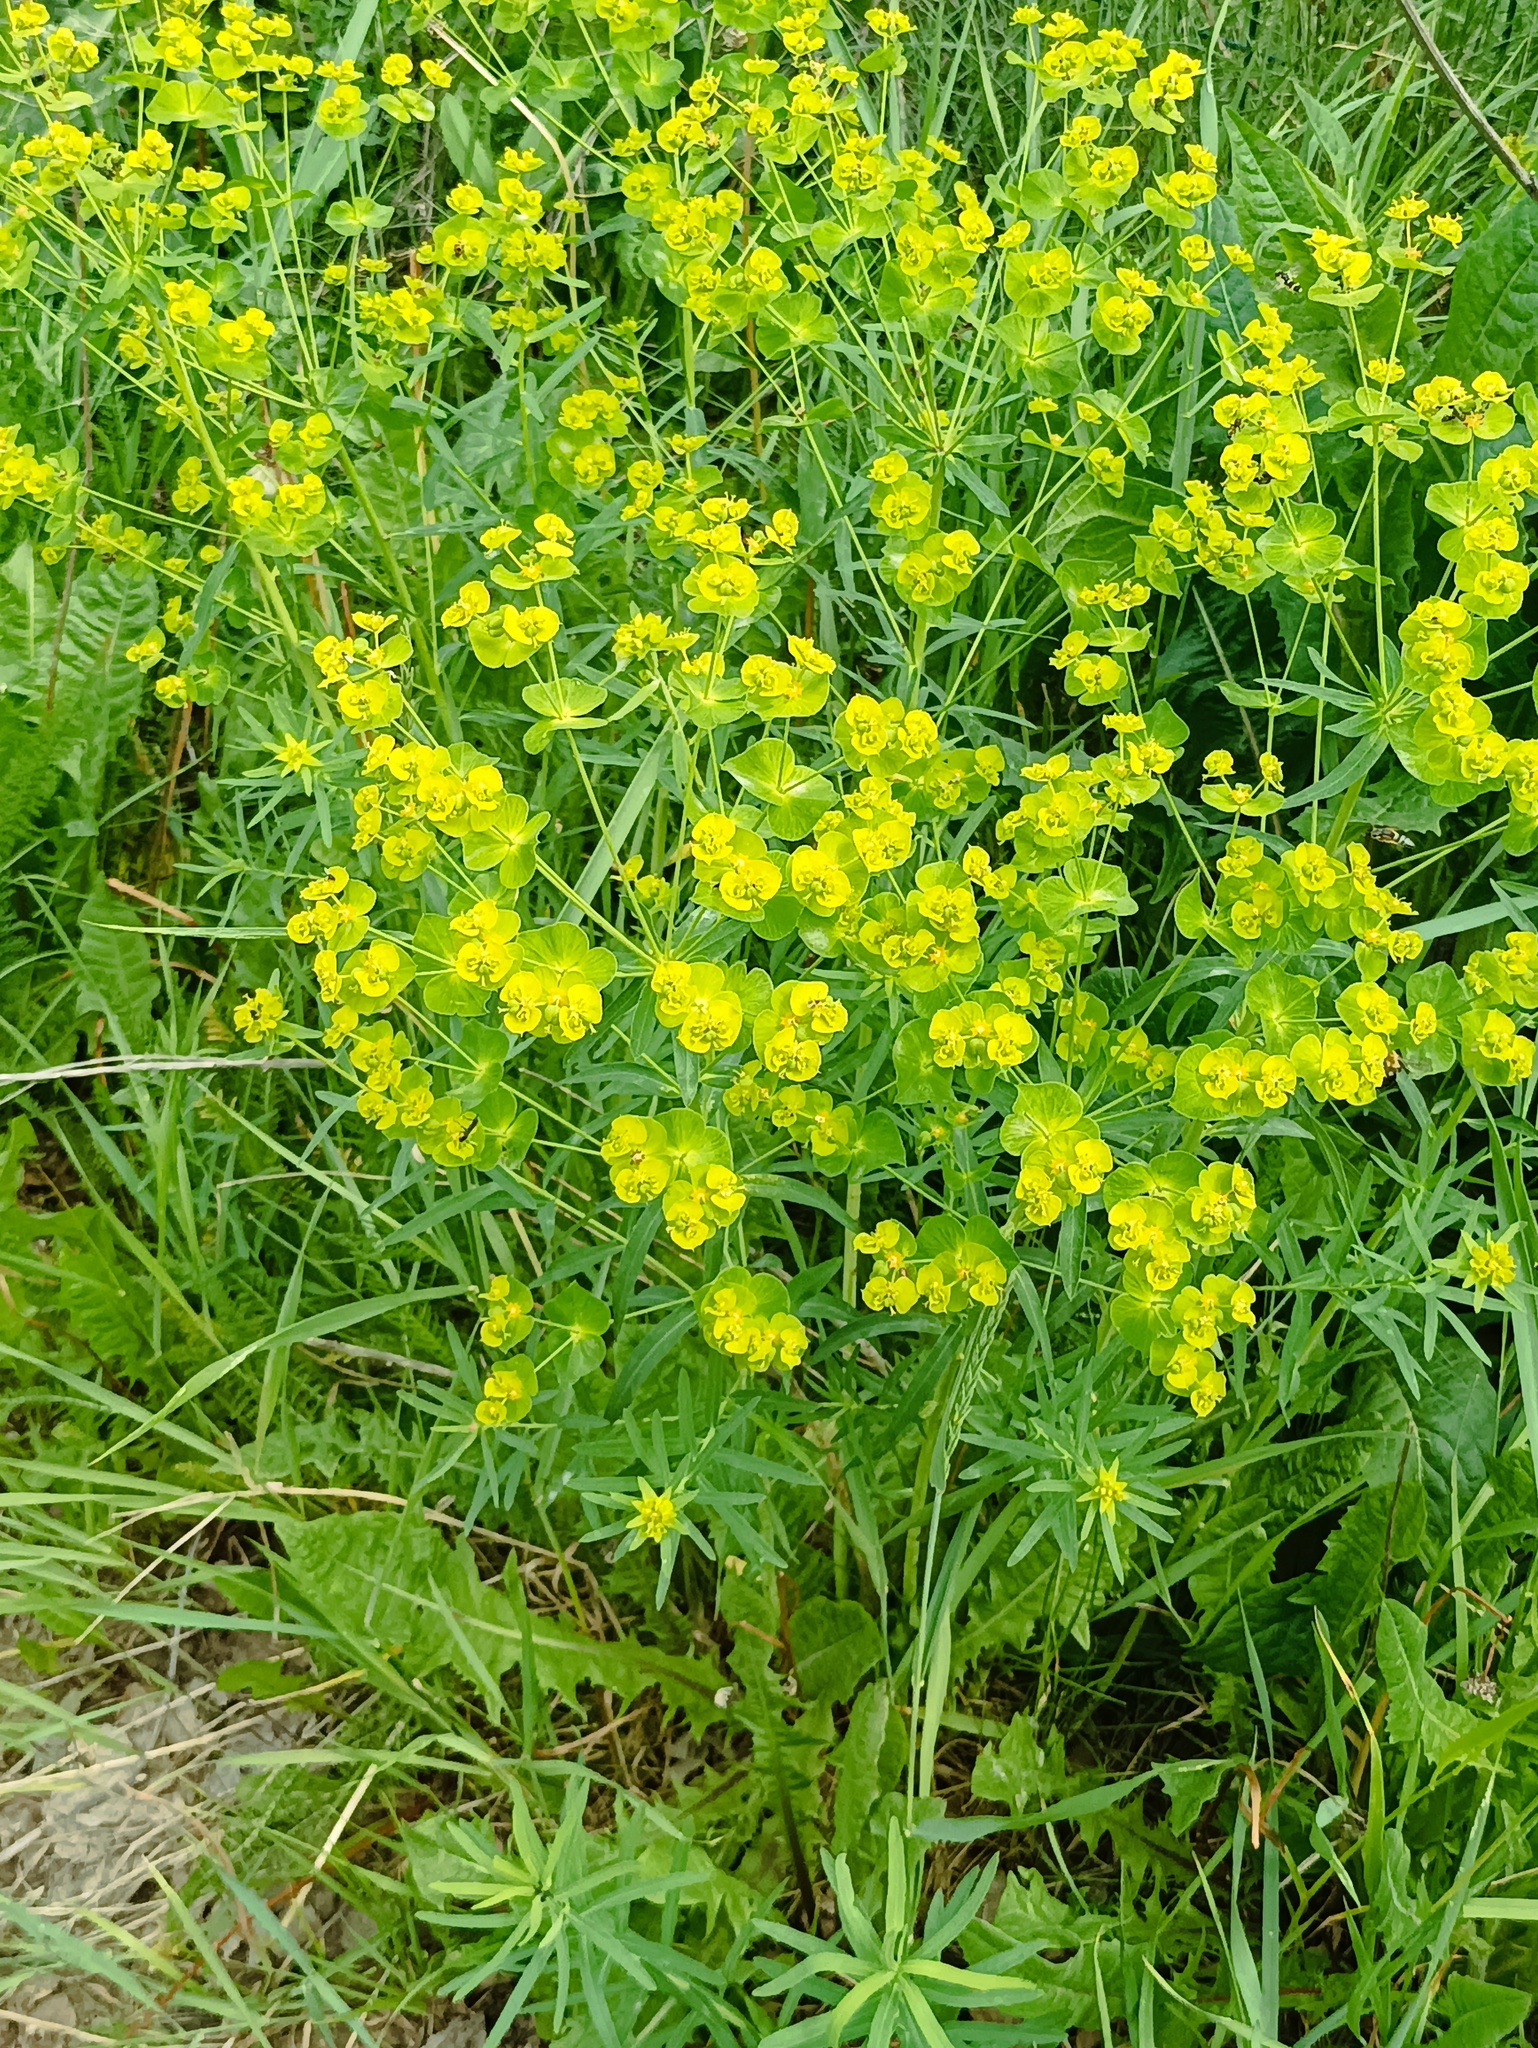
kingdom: Plantae
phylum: Tracheophyta
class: Magnoliopsida
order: Malpighiales
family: Euphorbiaceae
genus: Euphorbia
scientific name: Euphorbia virgata
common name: Leafy spurge
